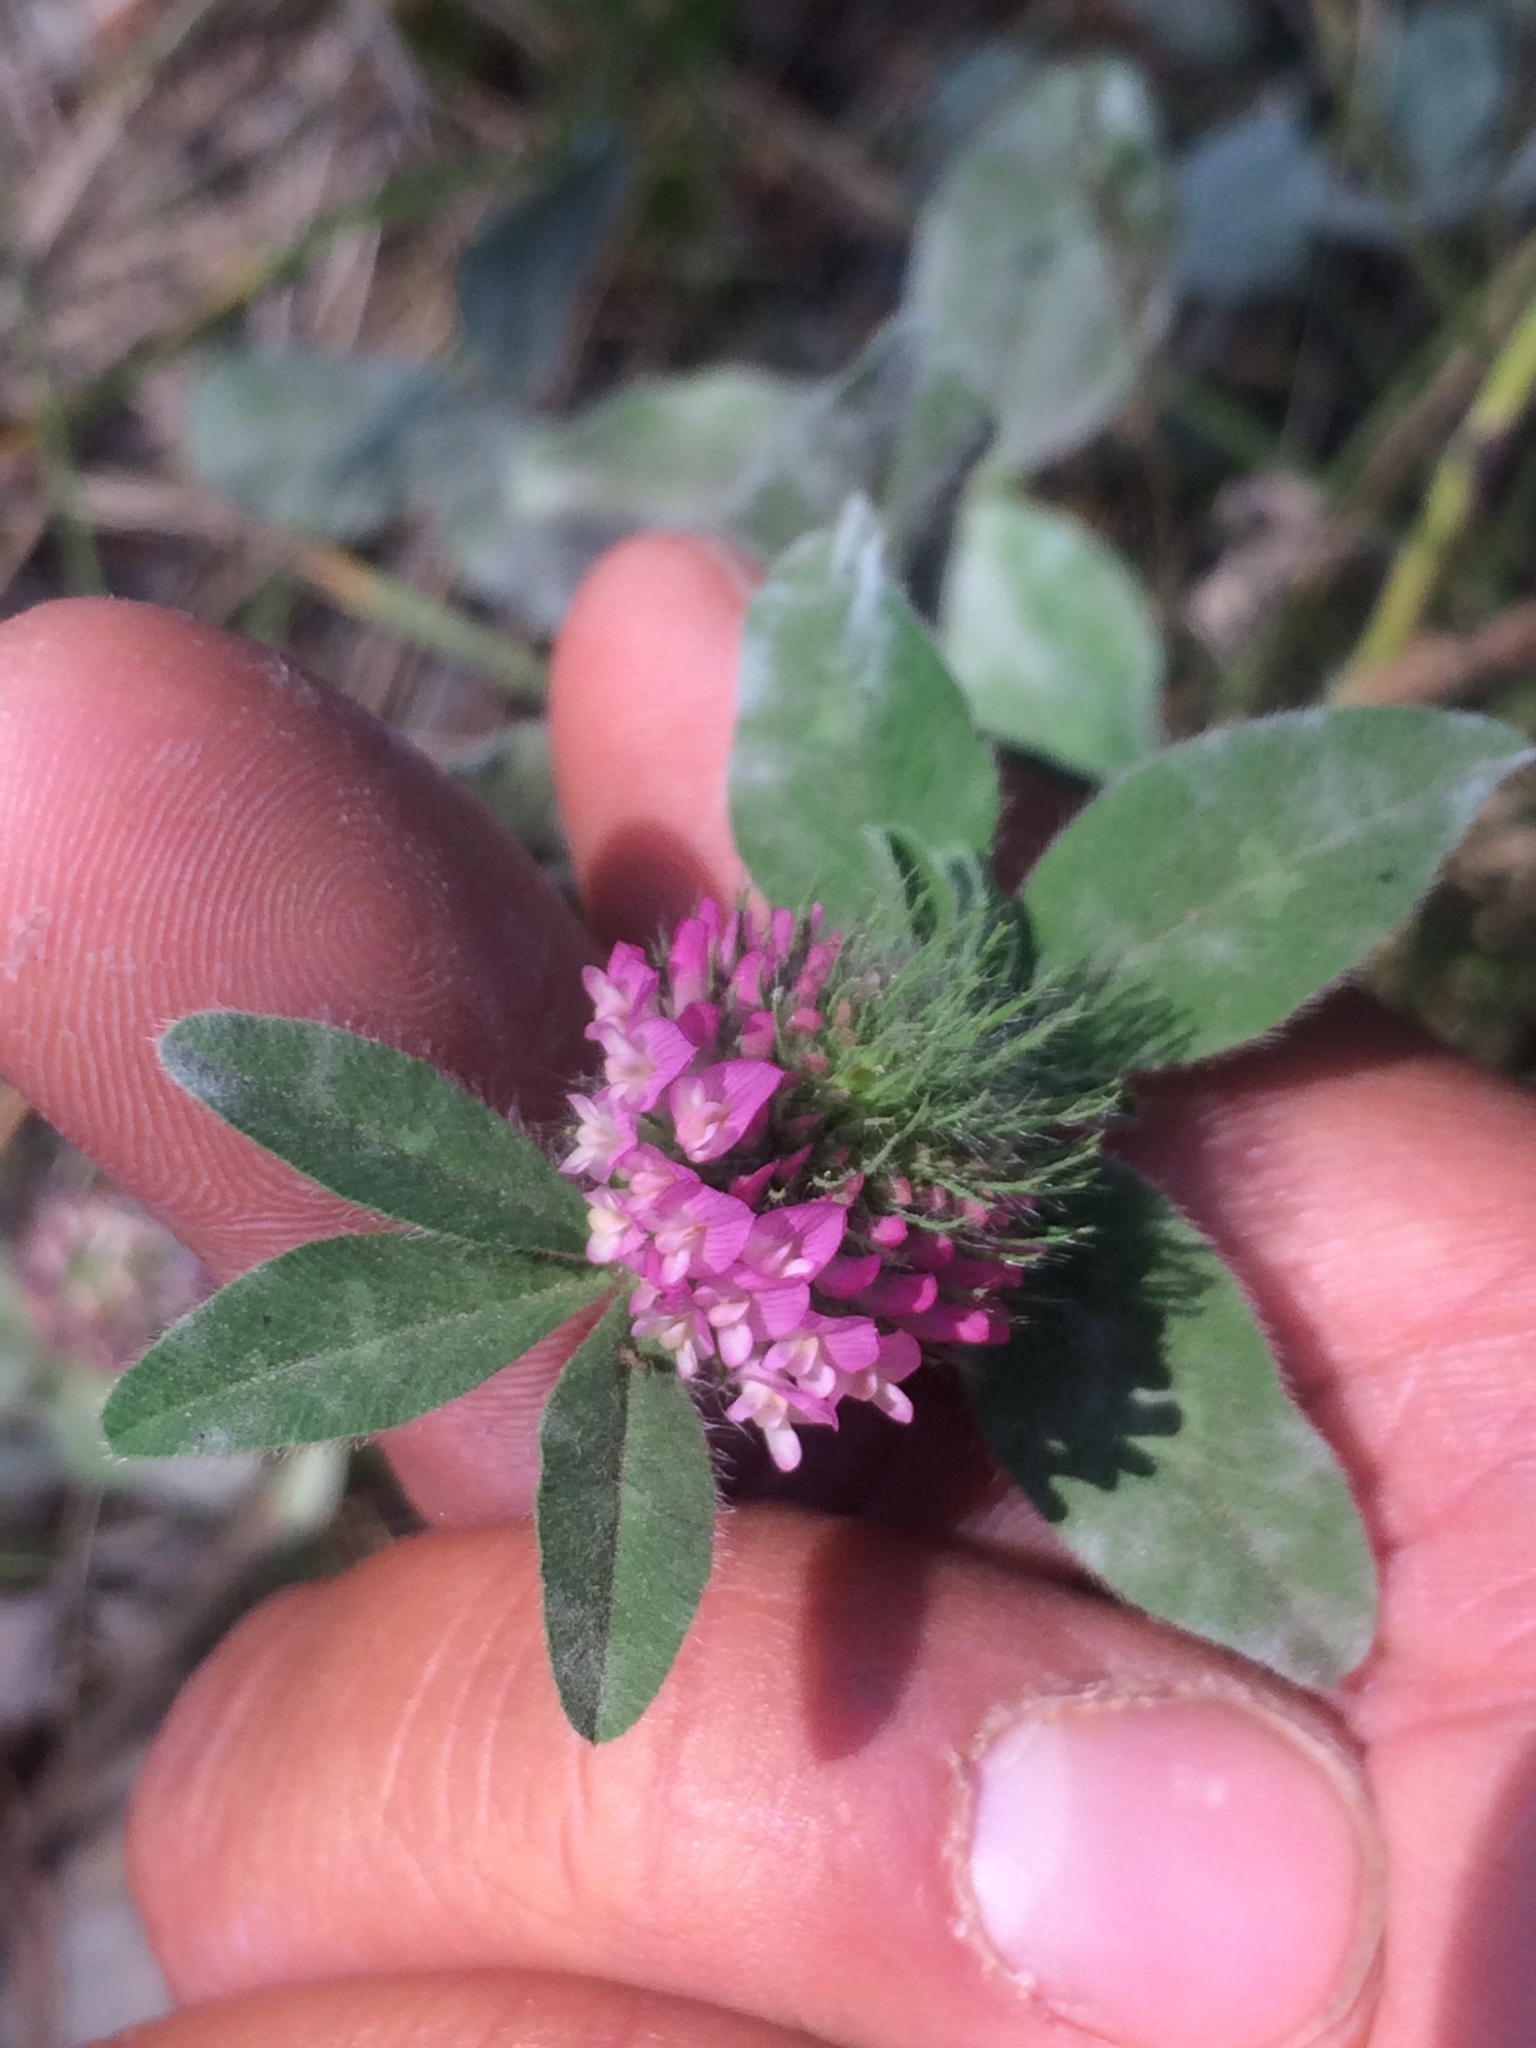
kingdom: Plantae
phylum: Tracheophyta
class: Magnoliopsida
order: Fabales
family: Fabaceae
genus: Trifolium
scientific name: Trifolium pratense
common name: Red clover
